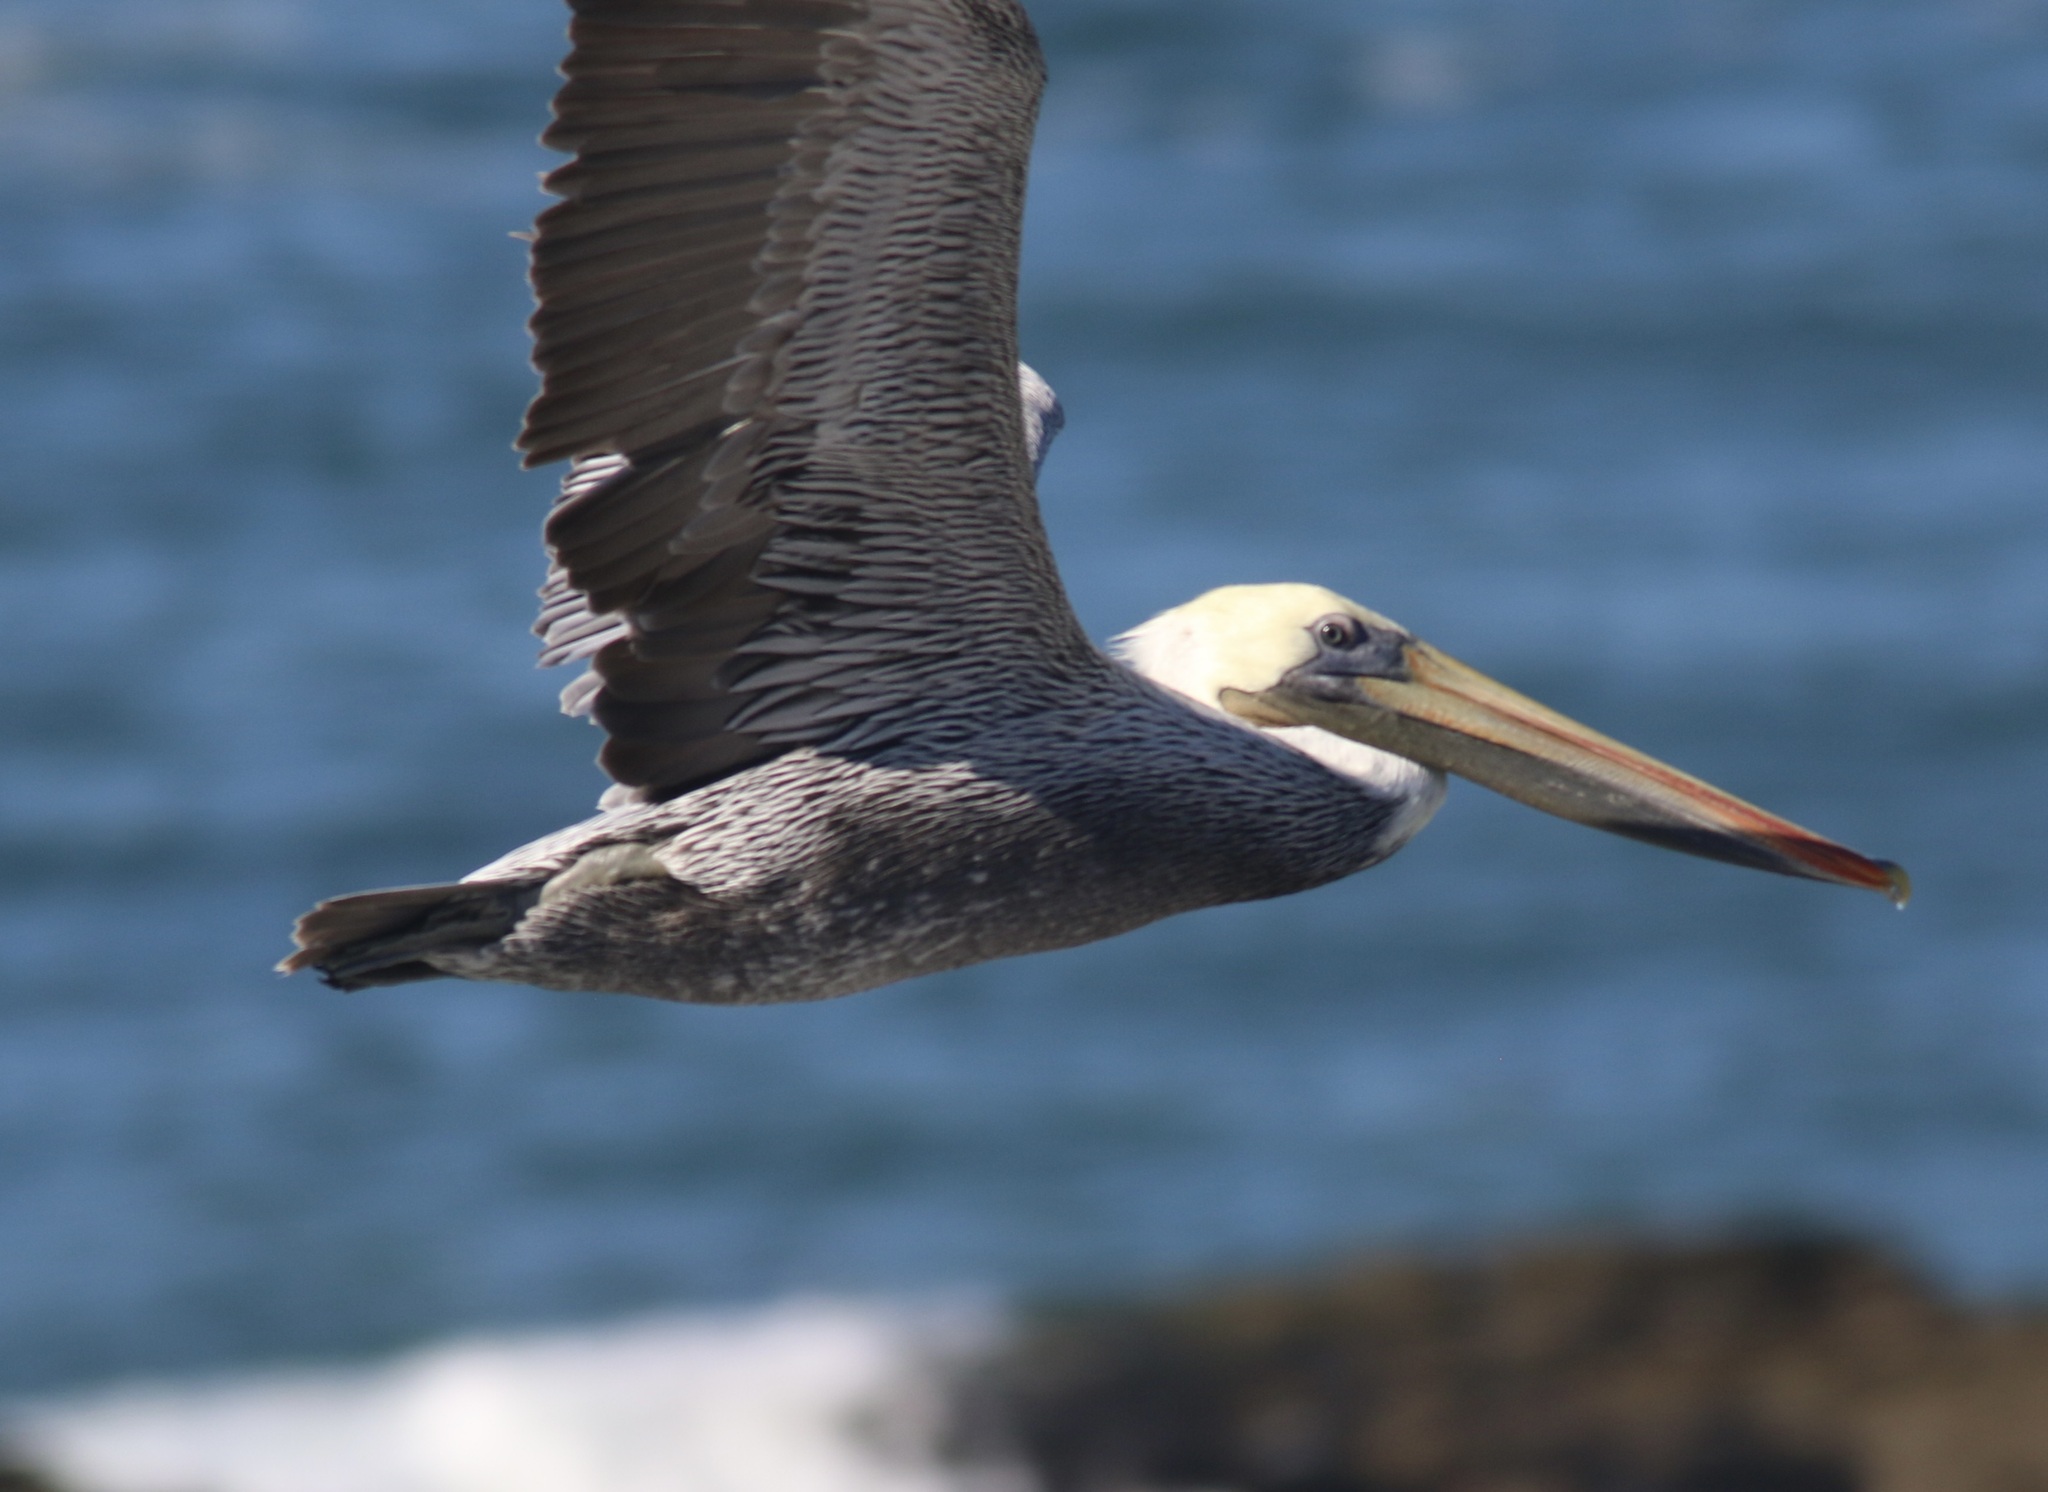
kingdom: Animalia
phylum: Chordata
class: Aves
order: Pelecaniformes
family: Pelecanidae
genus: Pelecanus
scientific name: Pelecanus occidentalis
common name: Brown pelican
